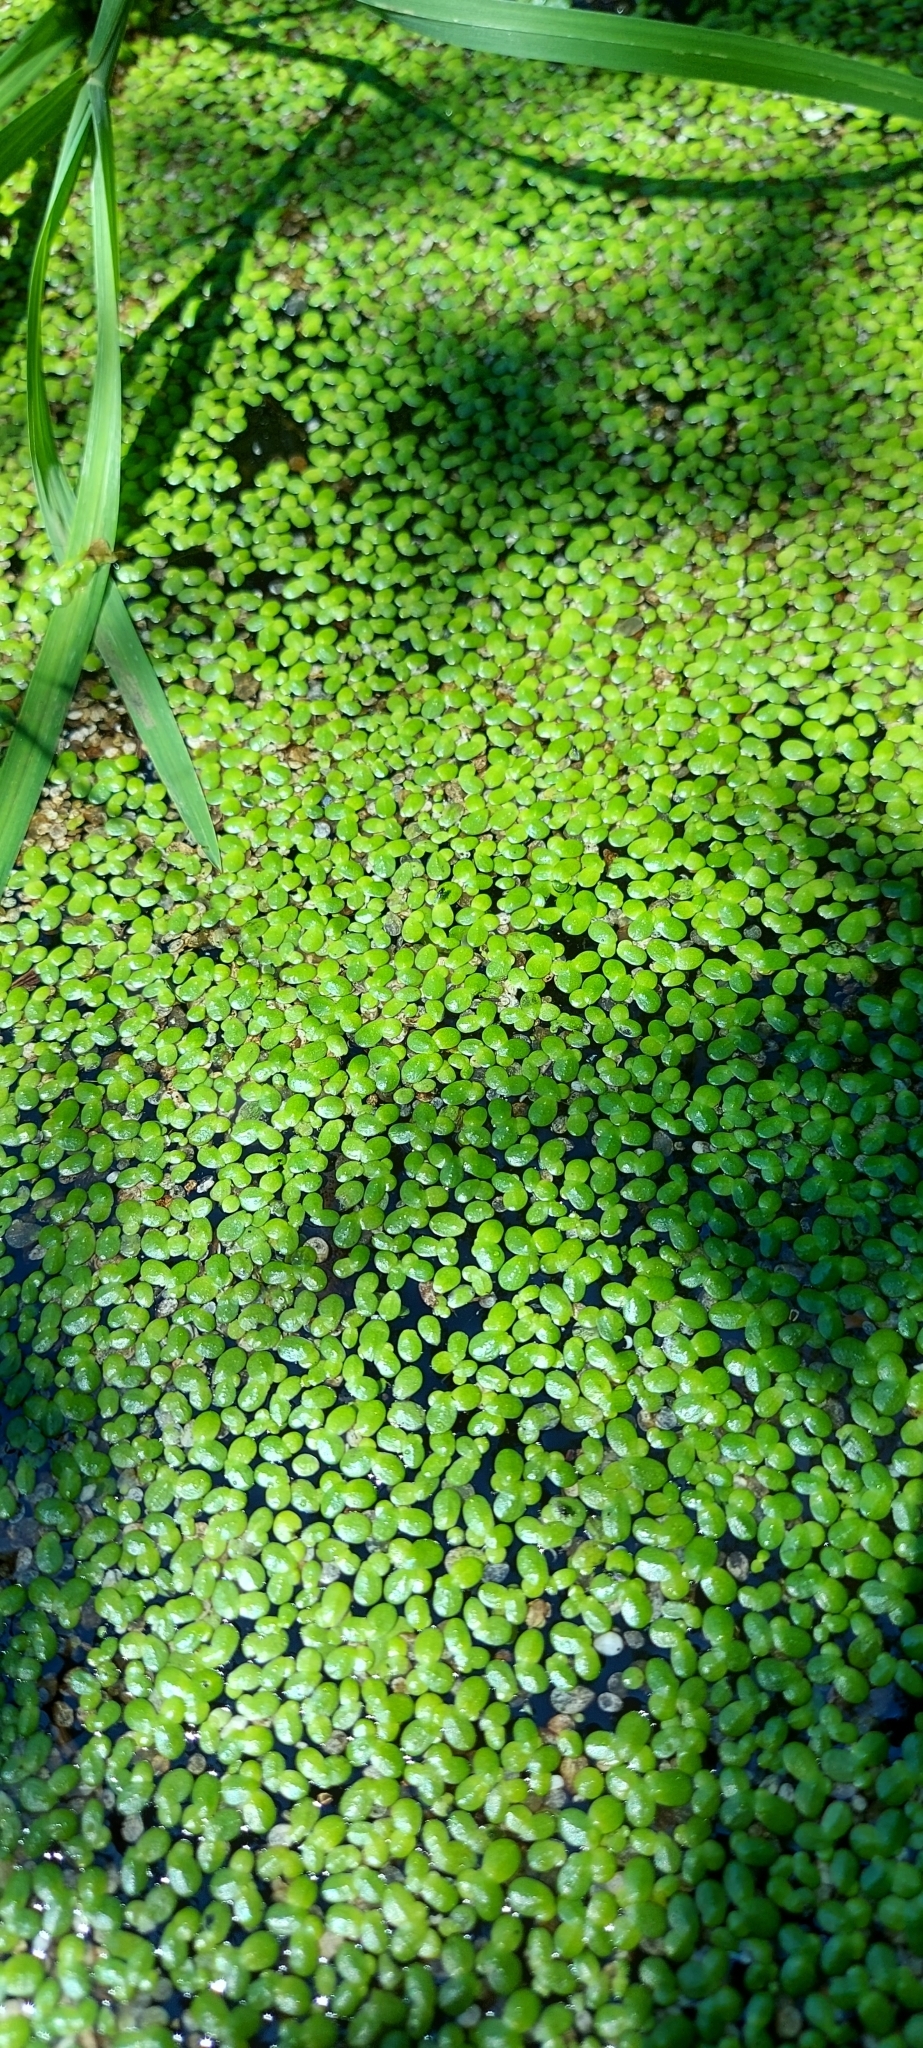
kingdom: Plantae
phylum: Tracheophyta
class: Liliopsida
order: Alismatales
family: Araceae
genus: Lemna
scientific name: Lemna minor
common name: Common duckweed
